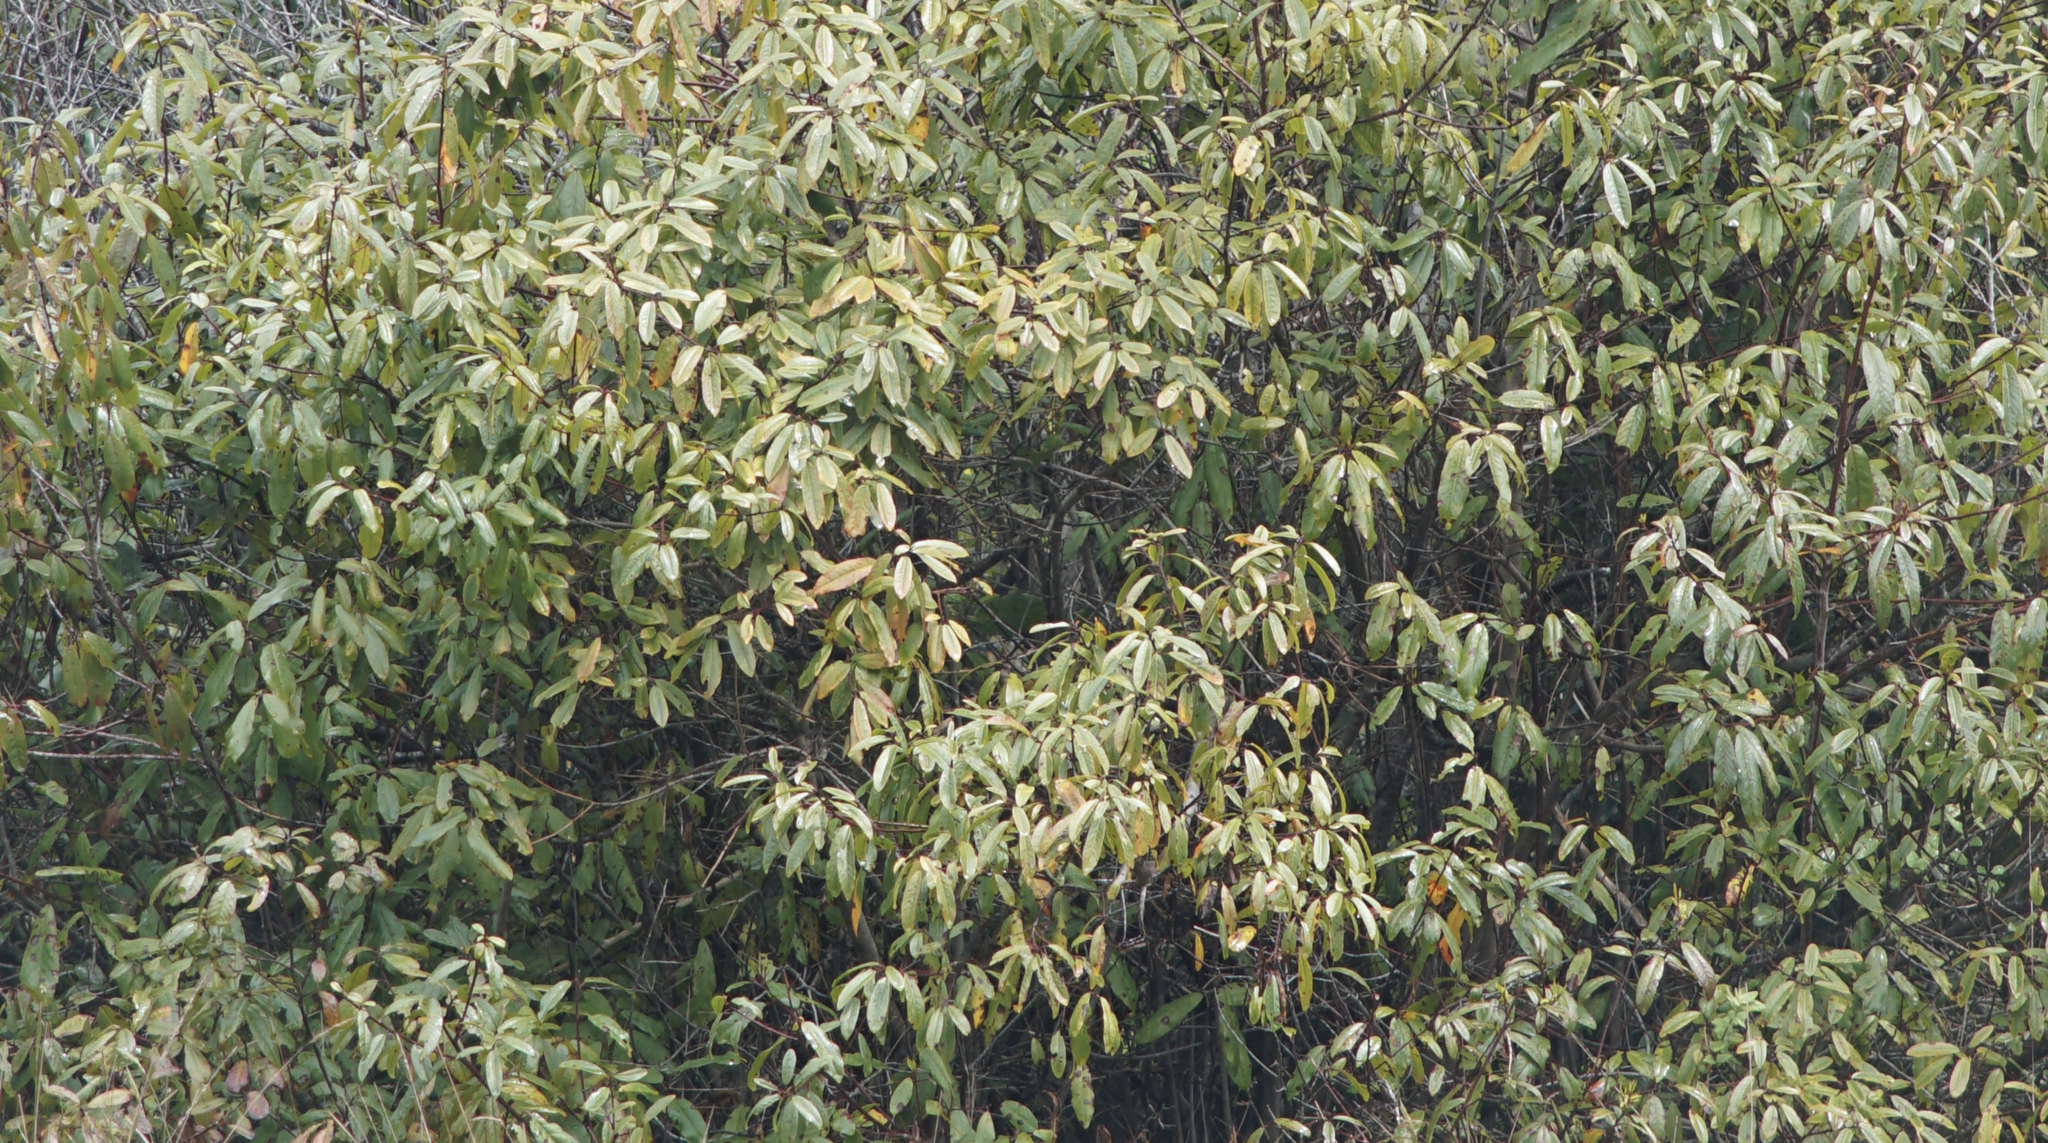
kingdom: Plantae
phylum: Tracheophyta
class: Magnoliopsida
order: Rosales
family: Rhamnaceae
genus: Frangula
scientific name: Frangula californica
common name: California buckthorn
